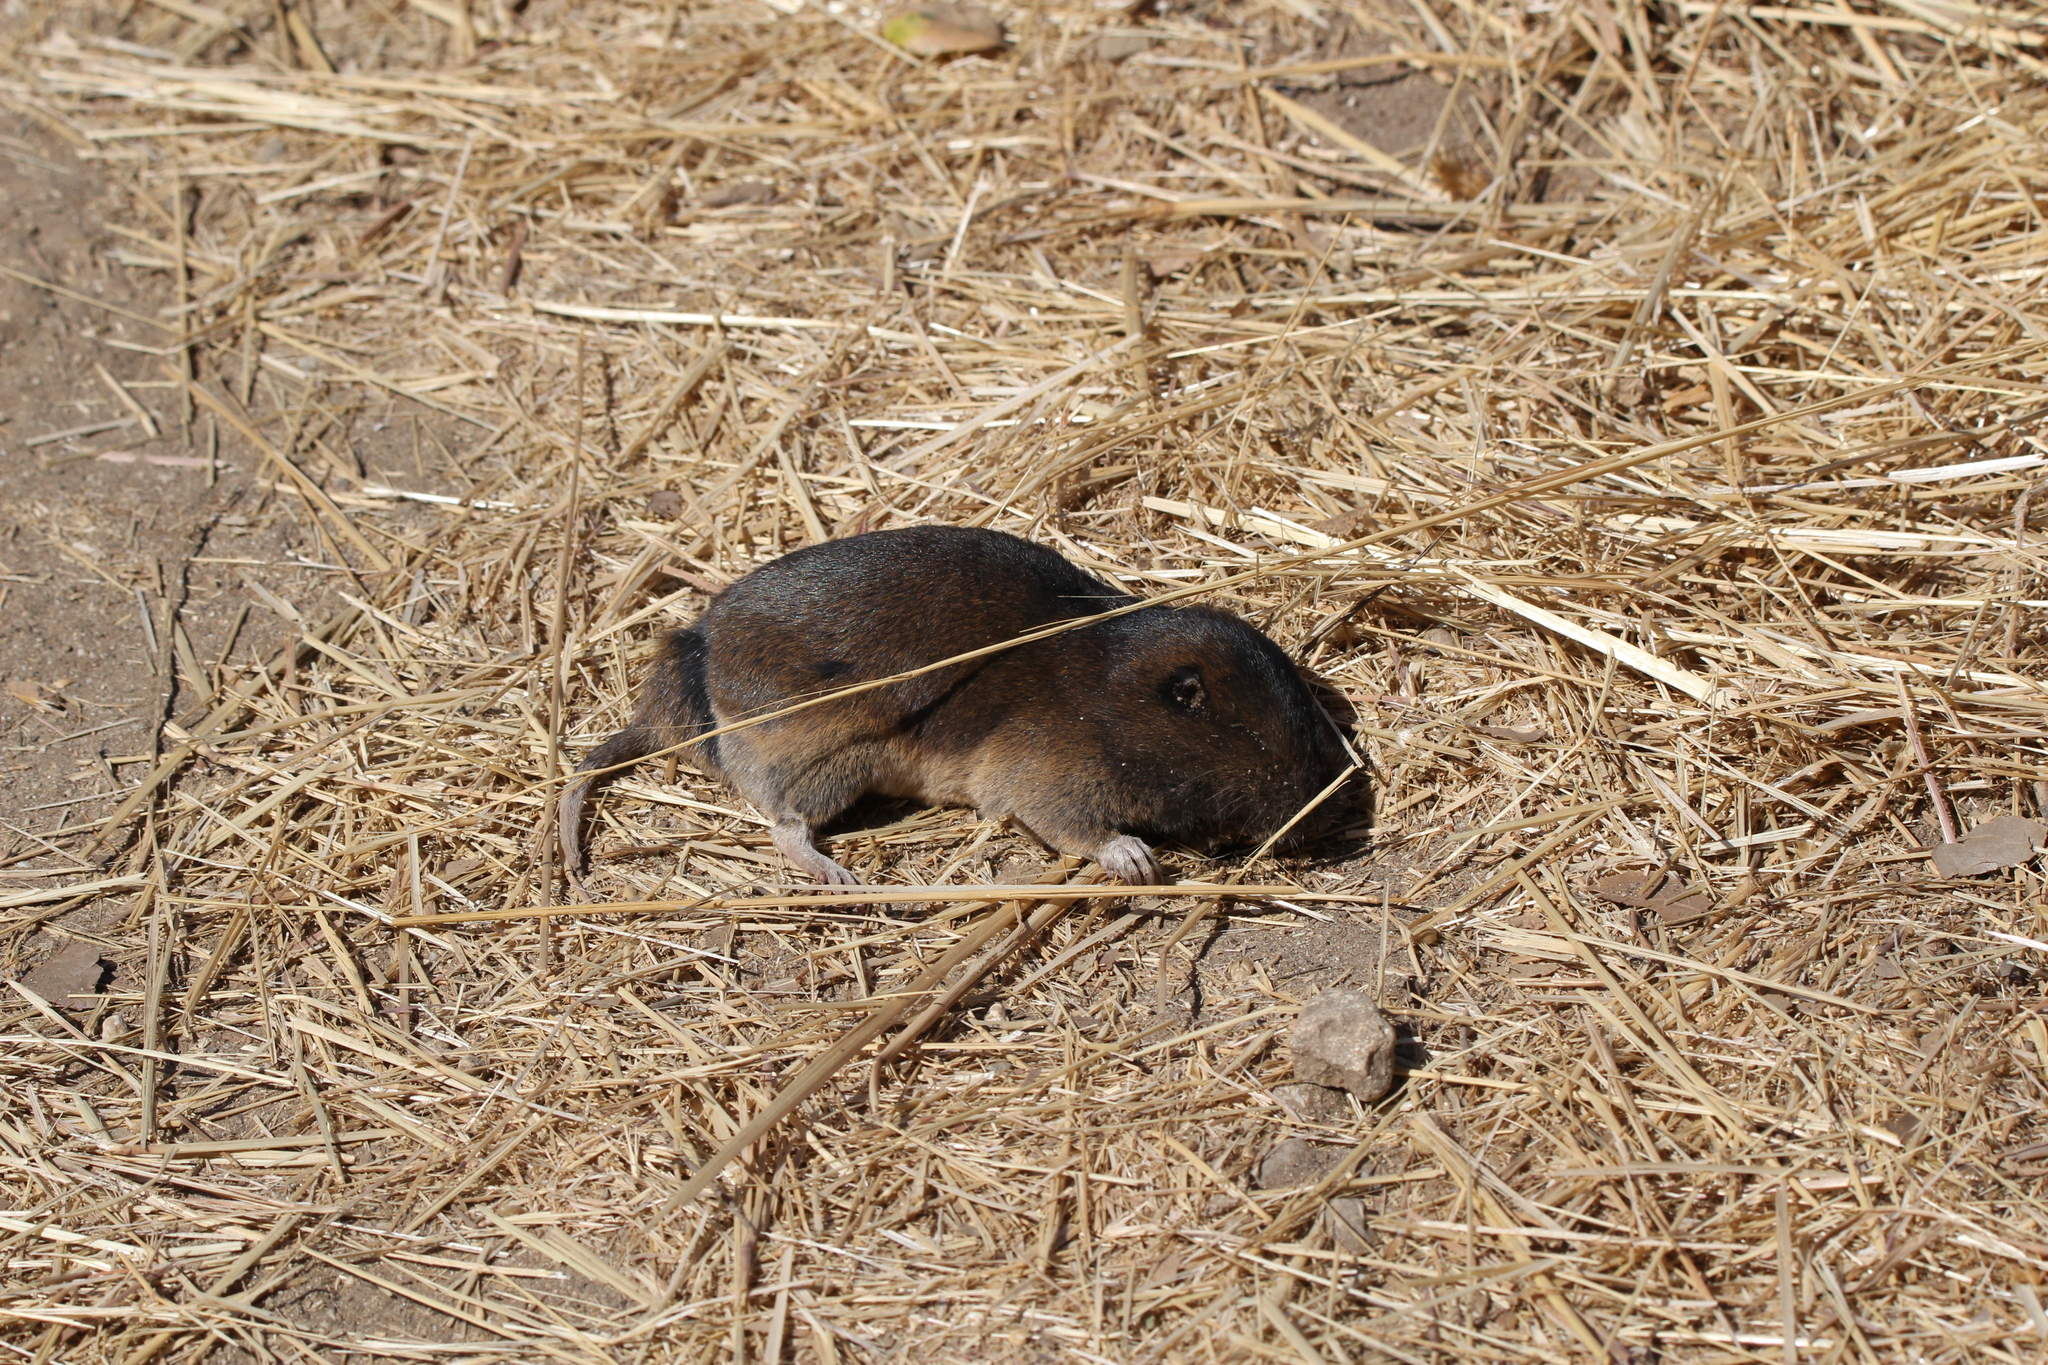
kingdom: Animalia
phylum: Chordata
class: Mammalia
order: Rodentia
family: Geomyidae
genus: Thomomys
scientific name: Thomomys bottae
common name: Botta's pocket gopher
